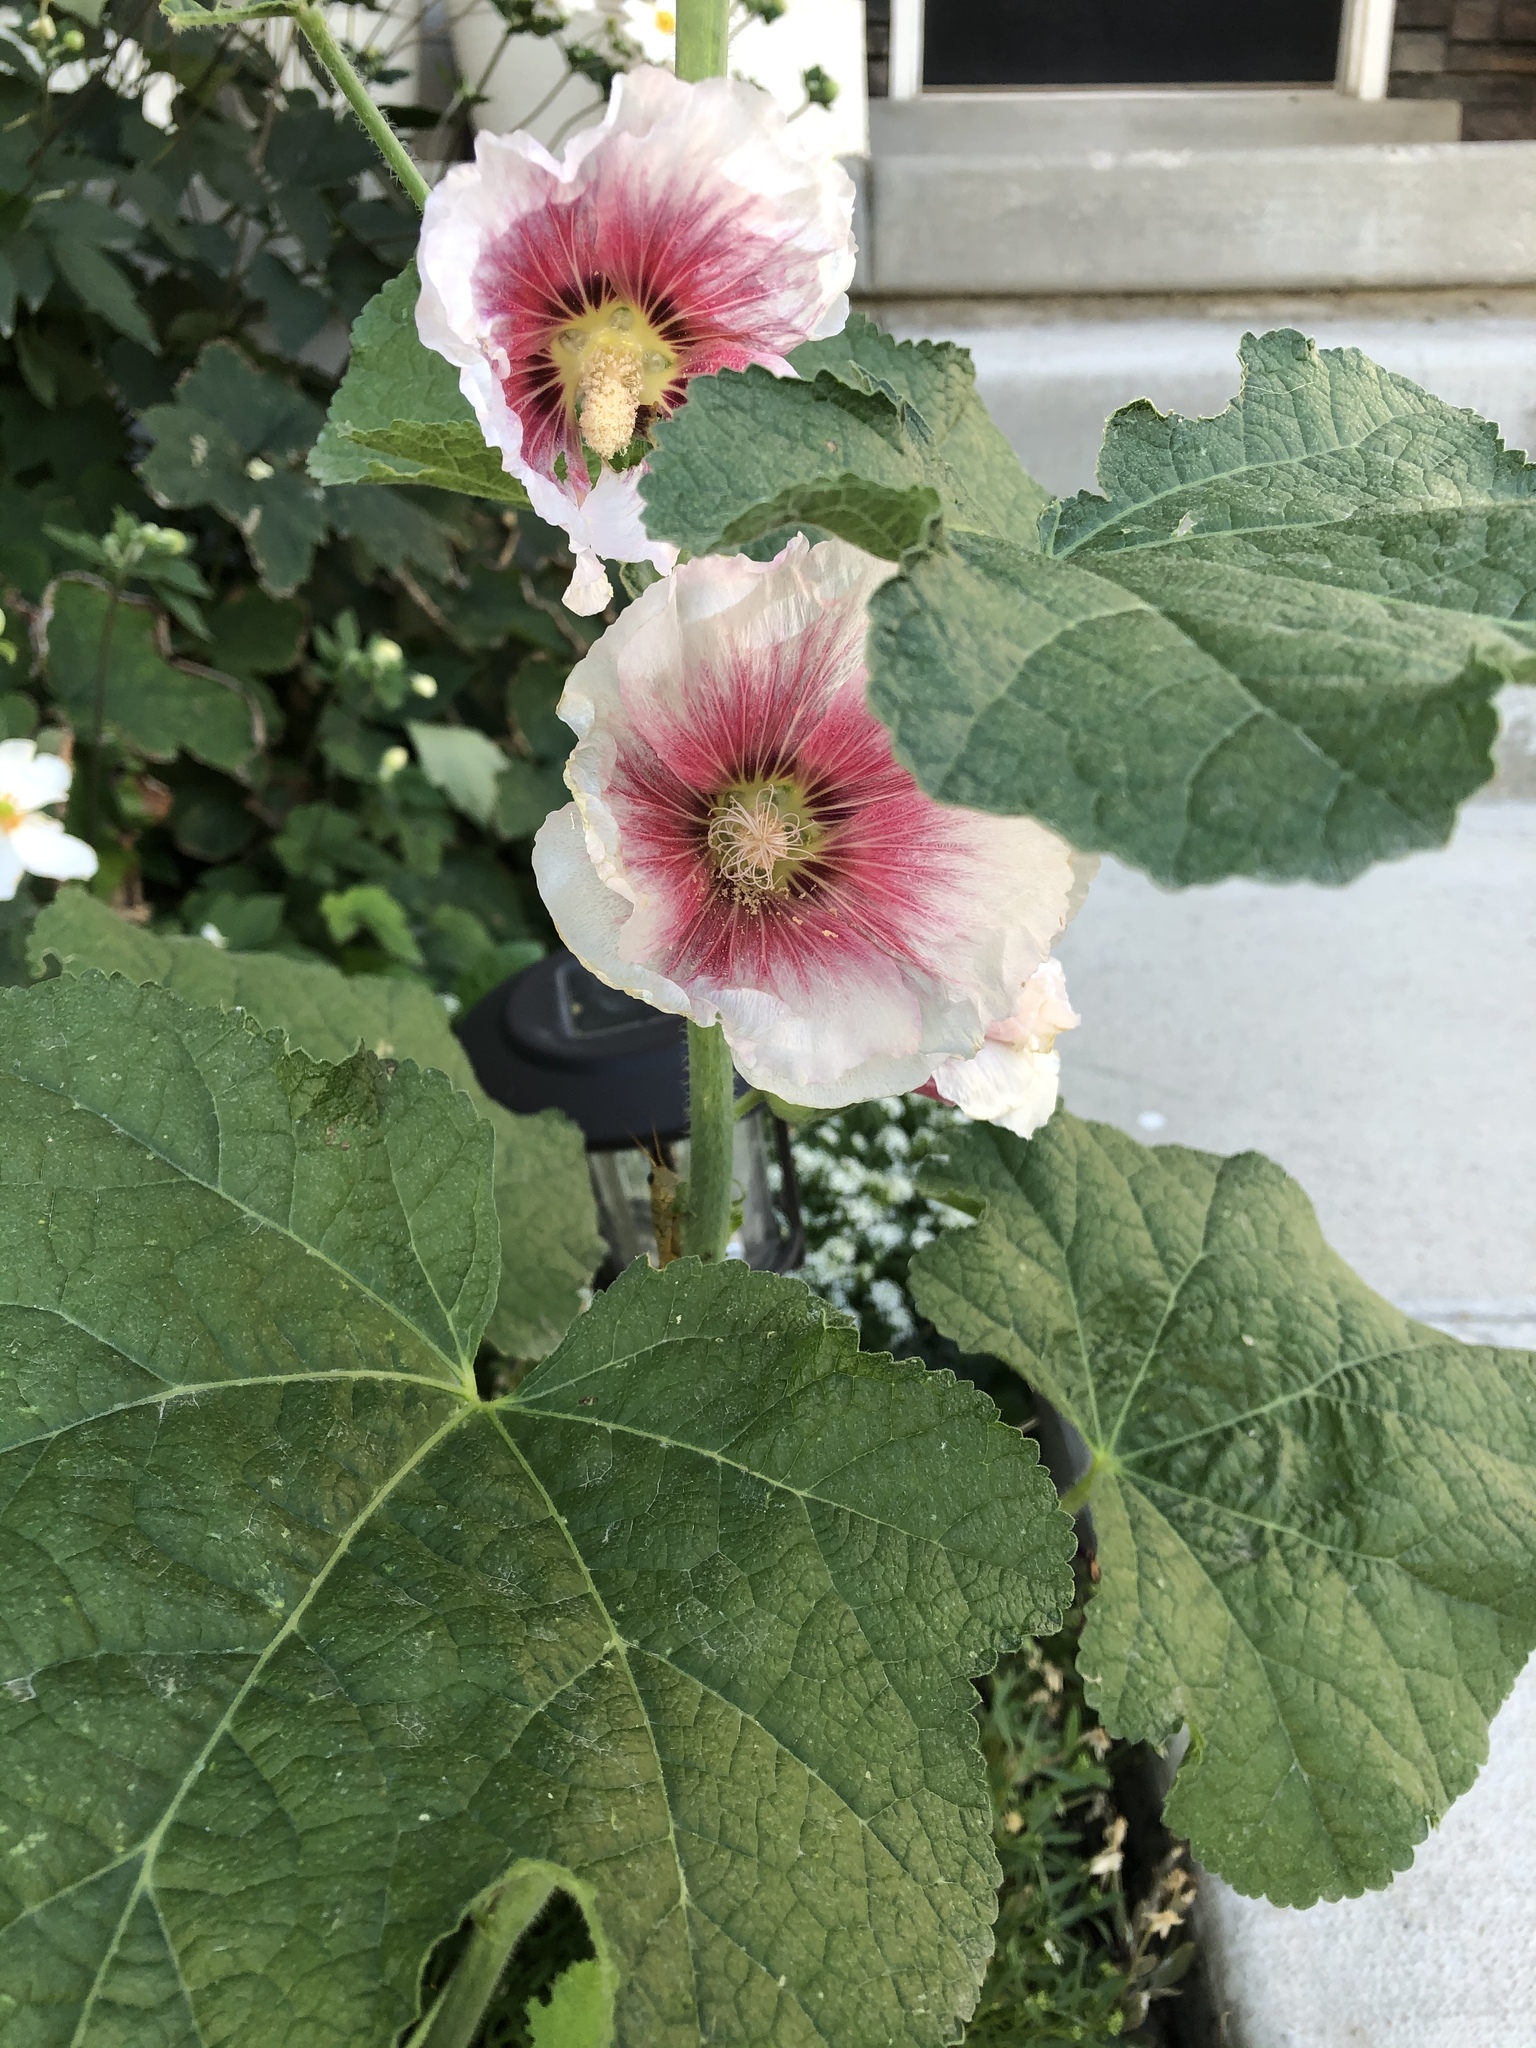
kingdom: Plantae
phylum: Tracheophyta
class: Magnoliopsida
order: Malvales
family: Malvaceae
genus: Alcea
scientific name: Alcea rosea
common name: Hollyhock
